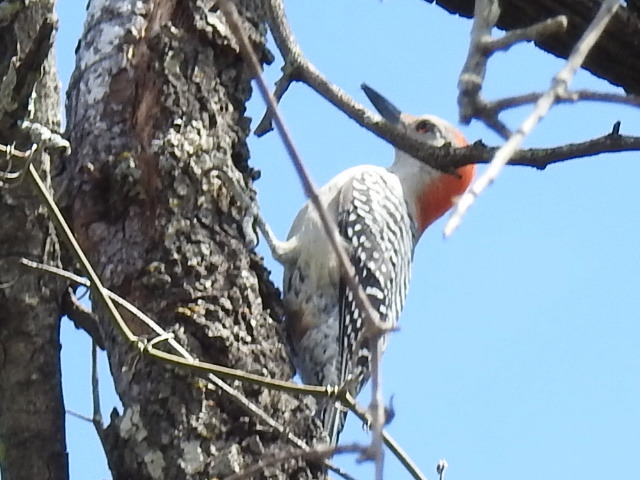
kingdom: Animalia
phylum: Chordata
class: Aves
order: Piciformes
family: Picidae
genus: Melanerpes
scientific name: Melanerpes carolinus
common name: Red-bellied woodpecker
